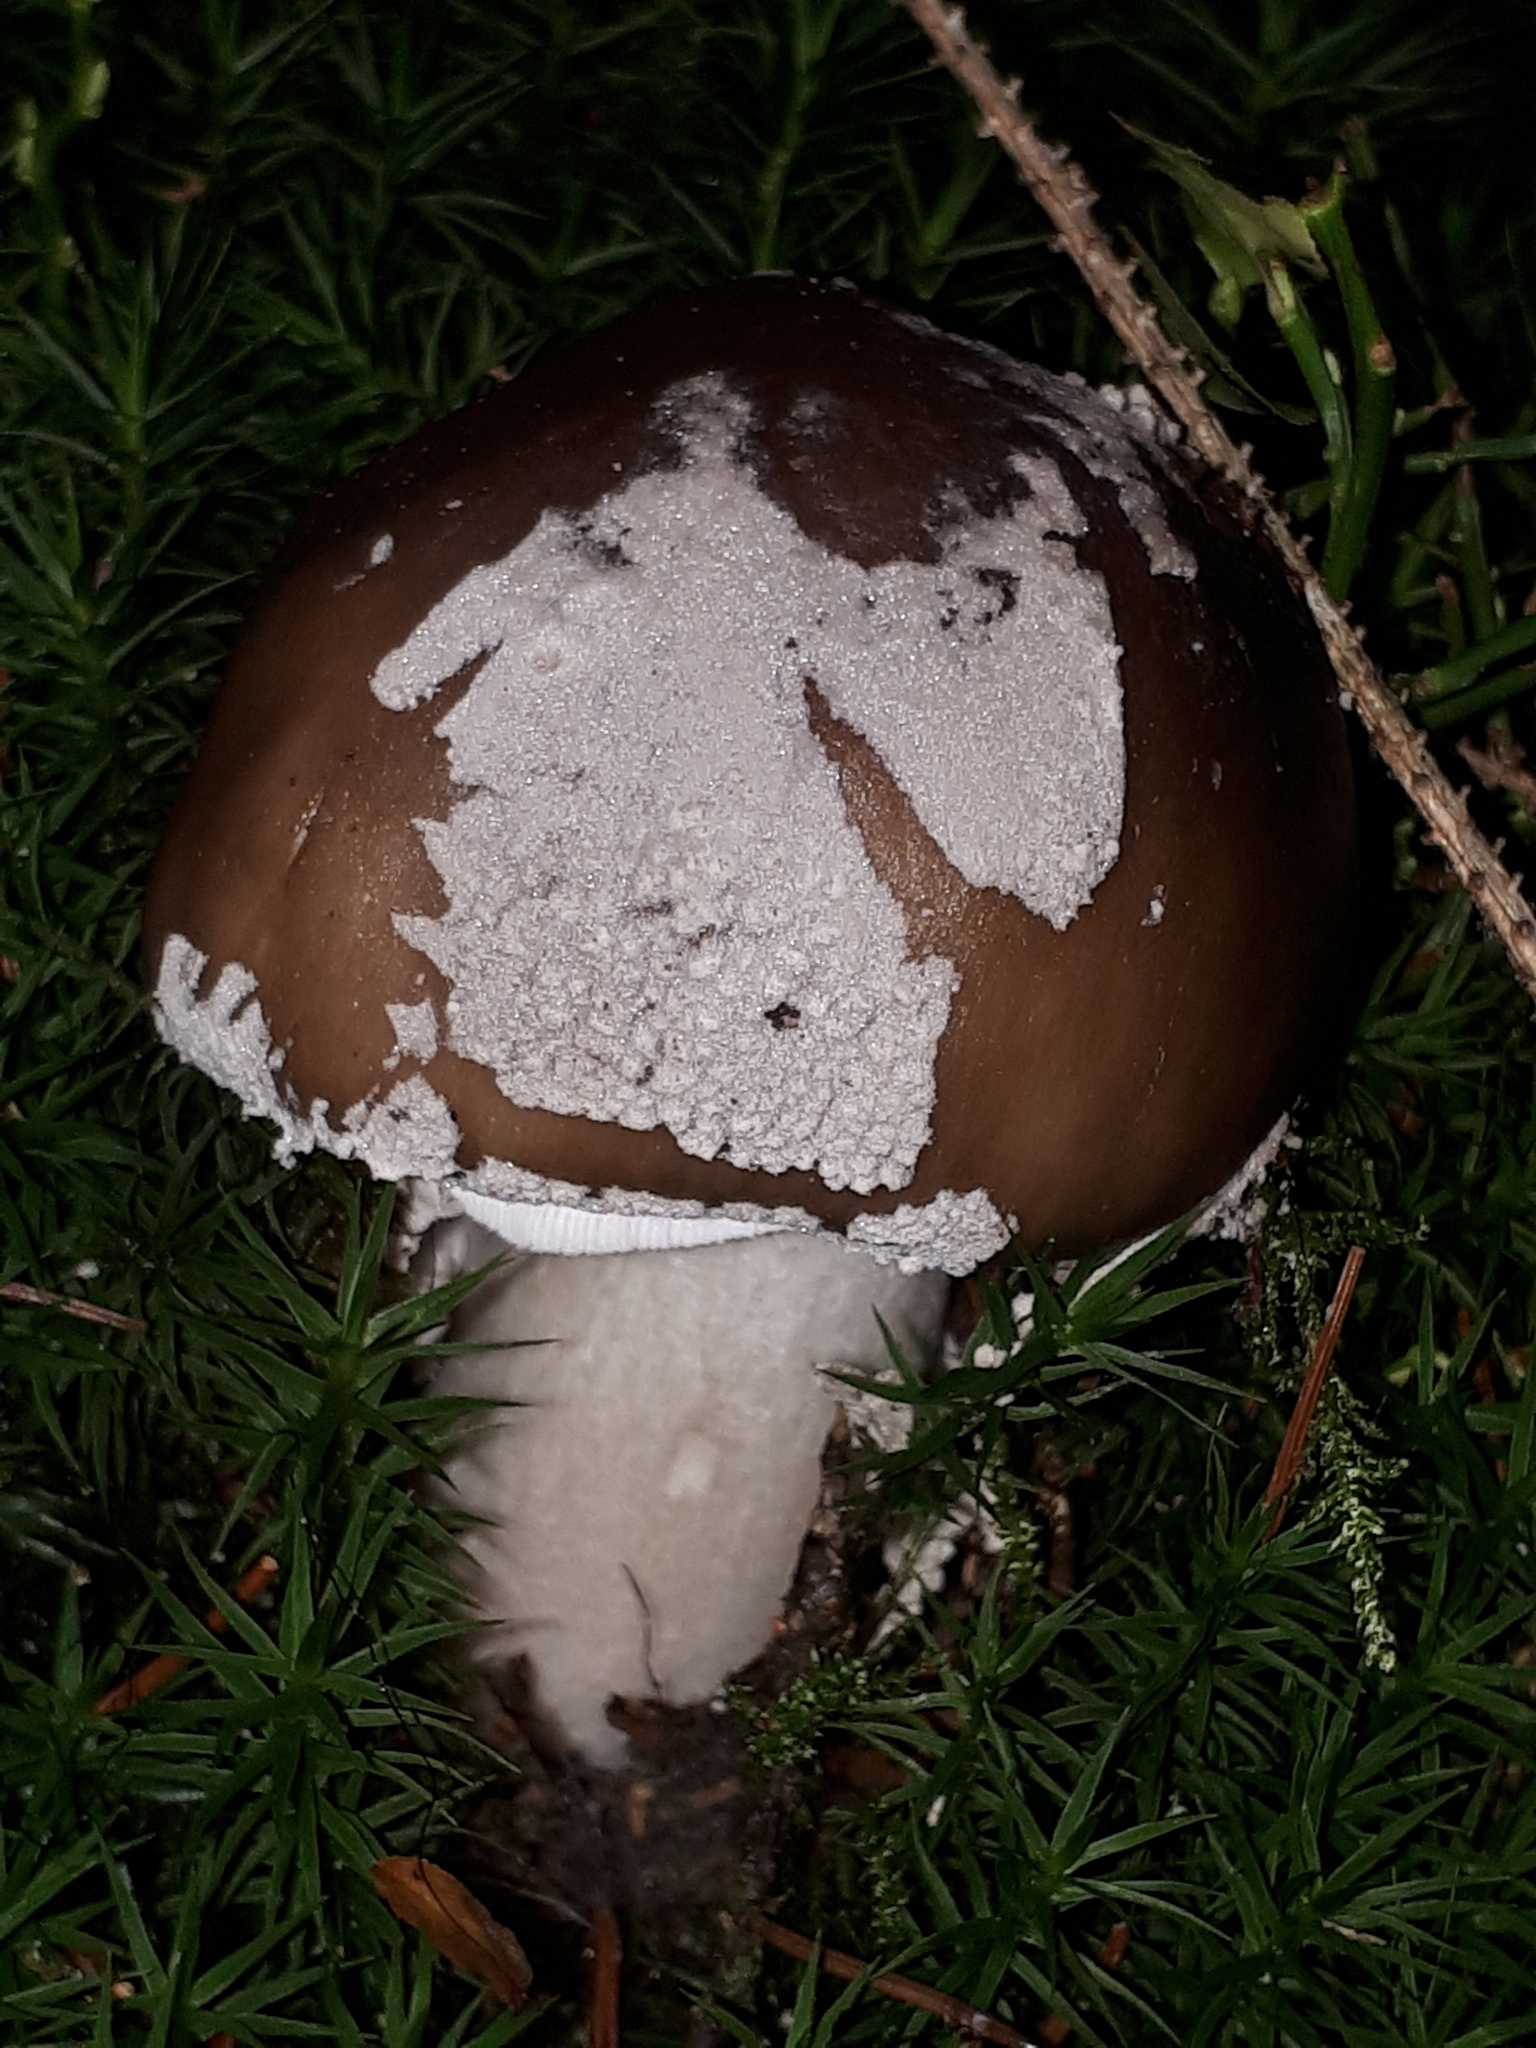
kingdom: Fungi
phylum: Basidiomycota
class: Agaricomycetes
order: Agaricales
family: Amanitaceae
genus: Amanita
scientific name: Amanita excelsa
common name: European false blusher
